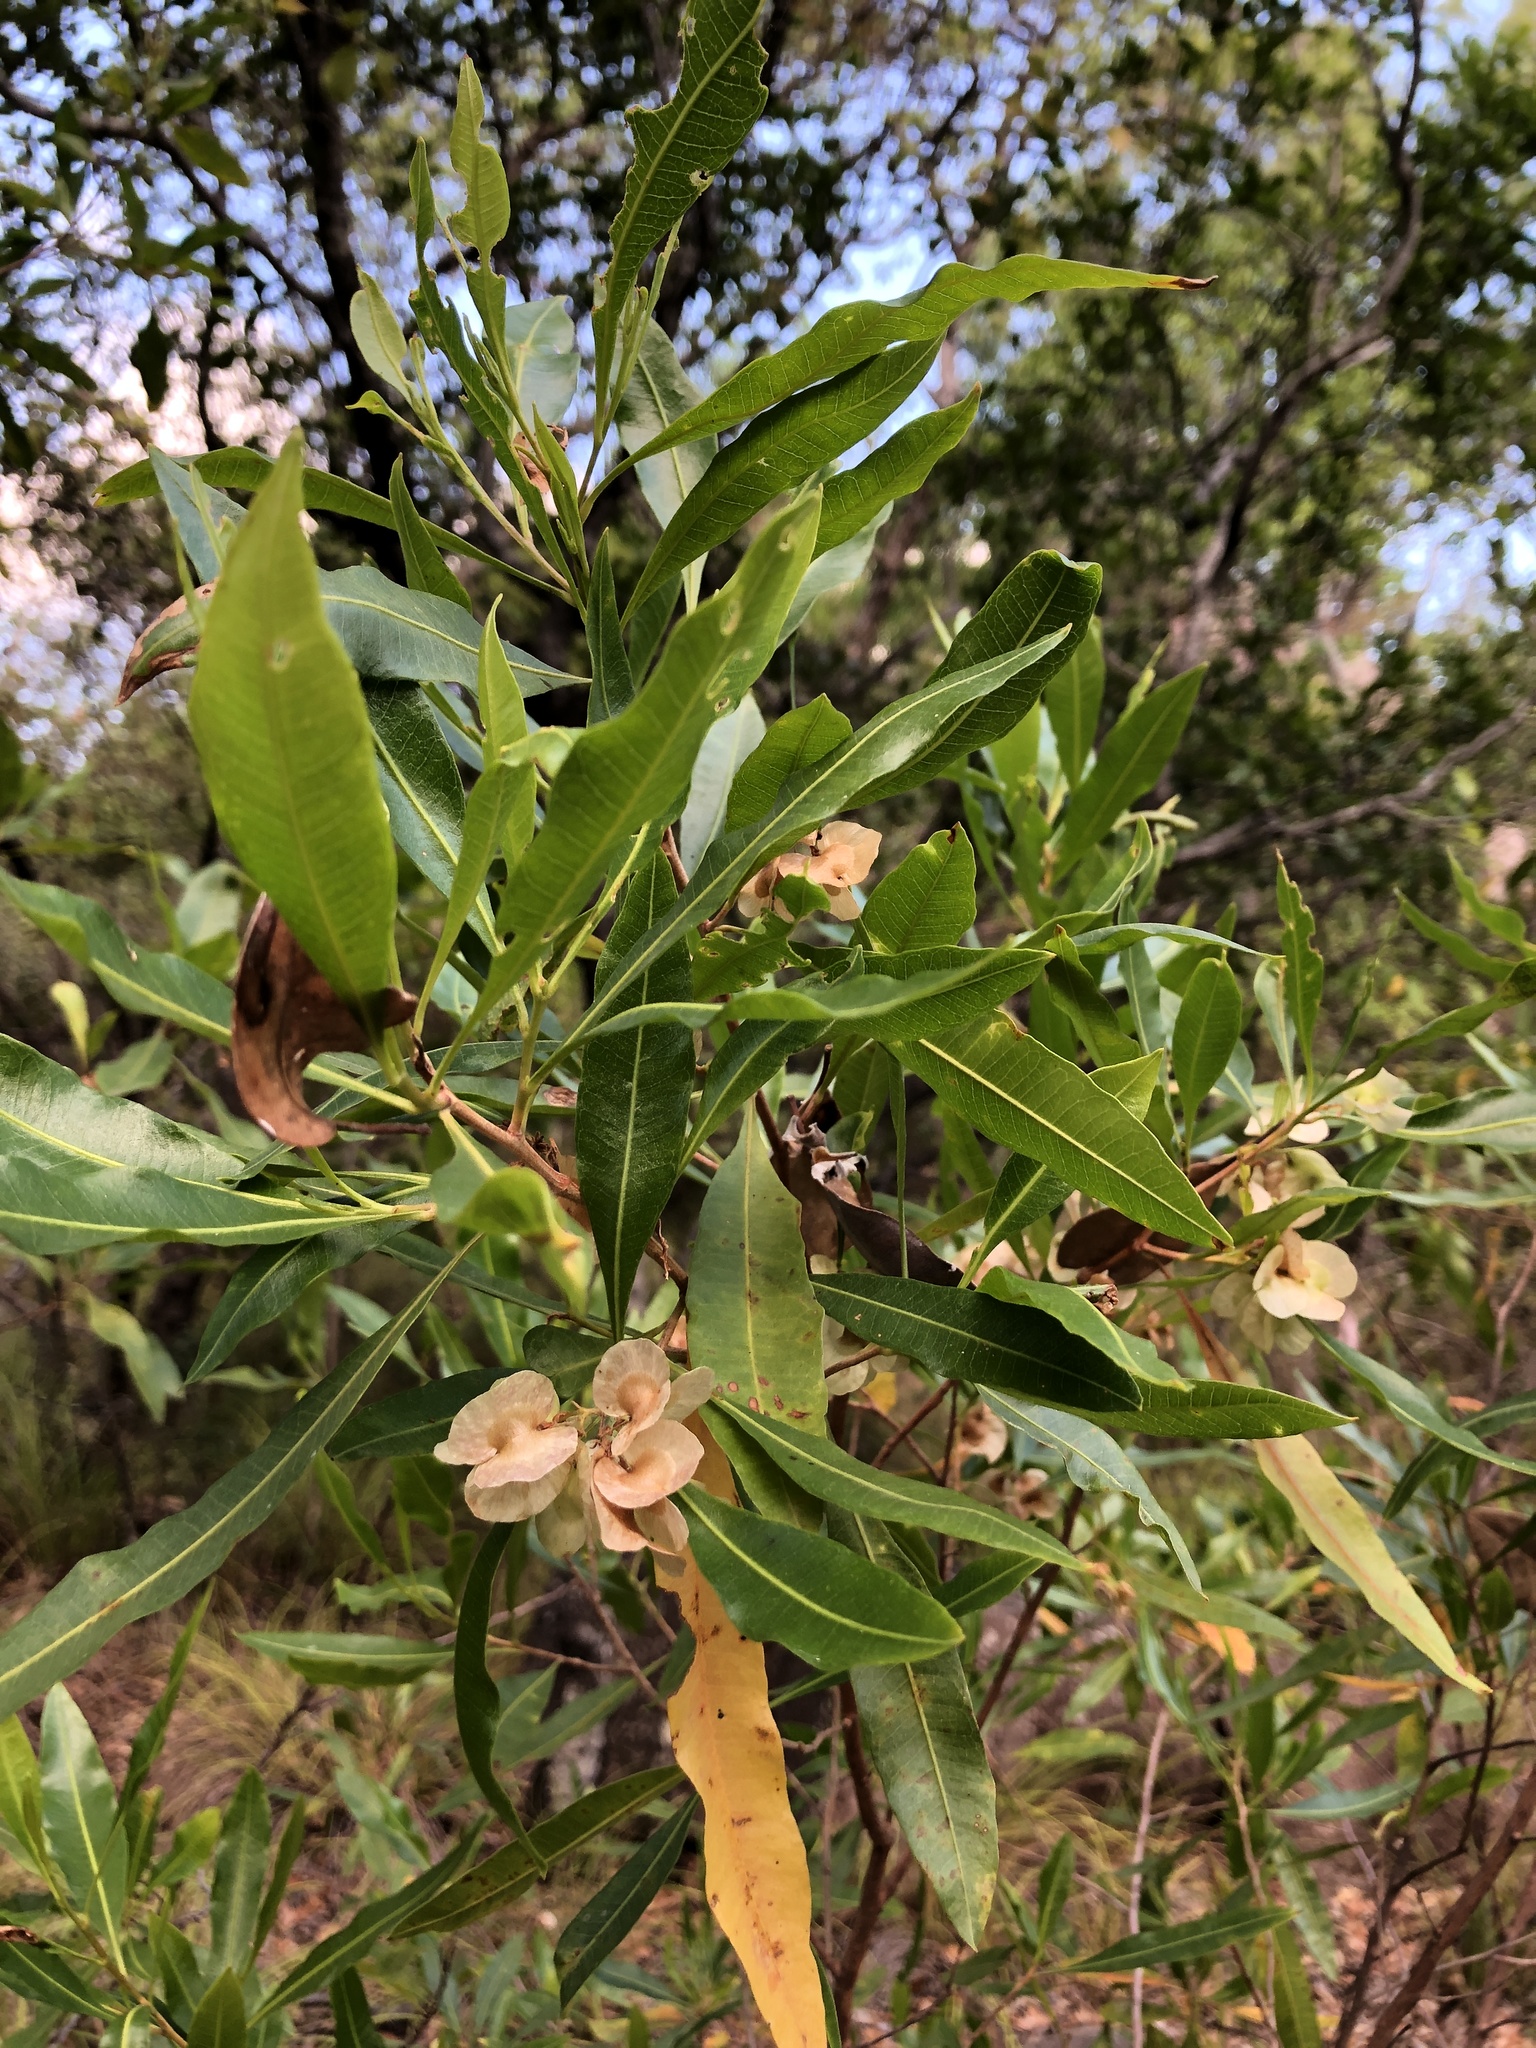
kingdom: Plantae
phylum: Tracheophyta
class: Magnoliopsida
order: Sapindales
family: Sapindaceae
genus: Dodonaea
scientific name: Dodonaea viscosa
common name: Hopbush
